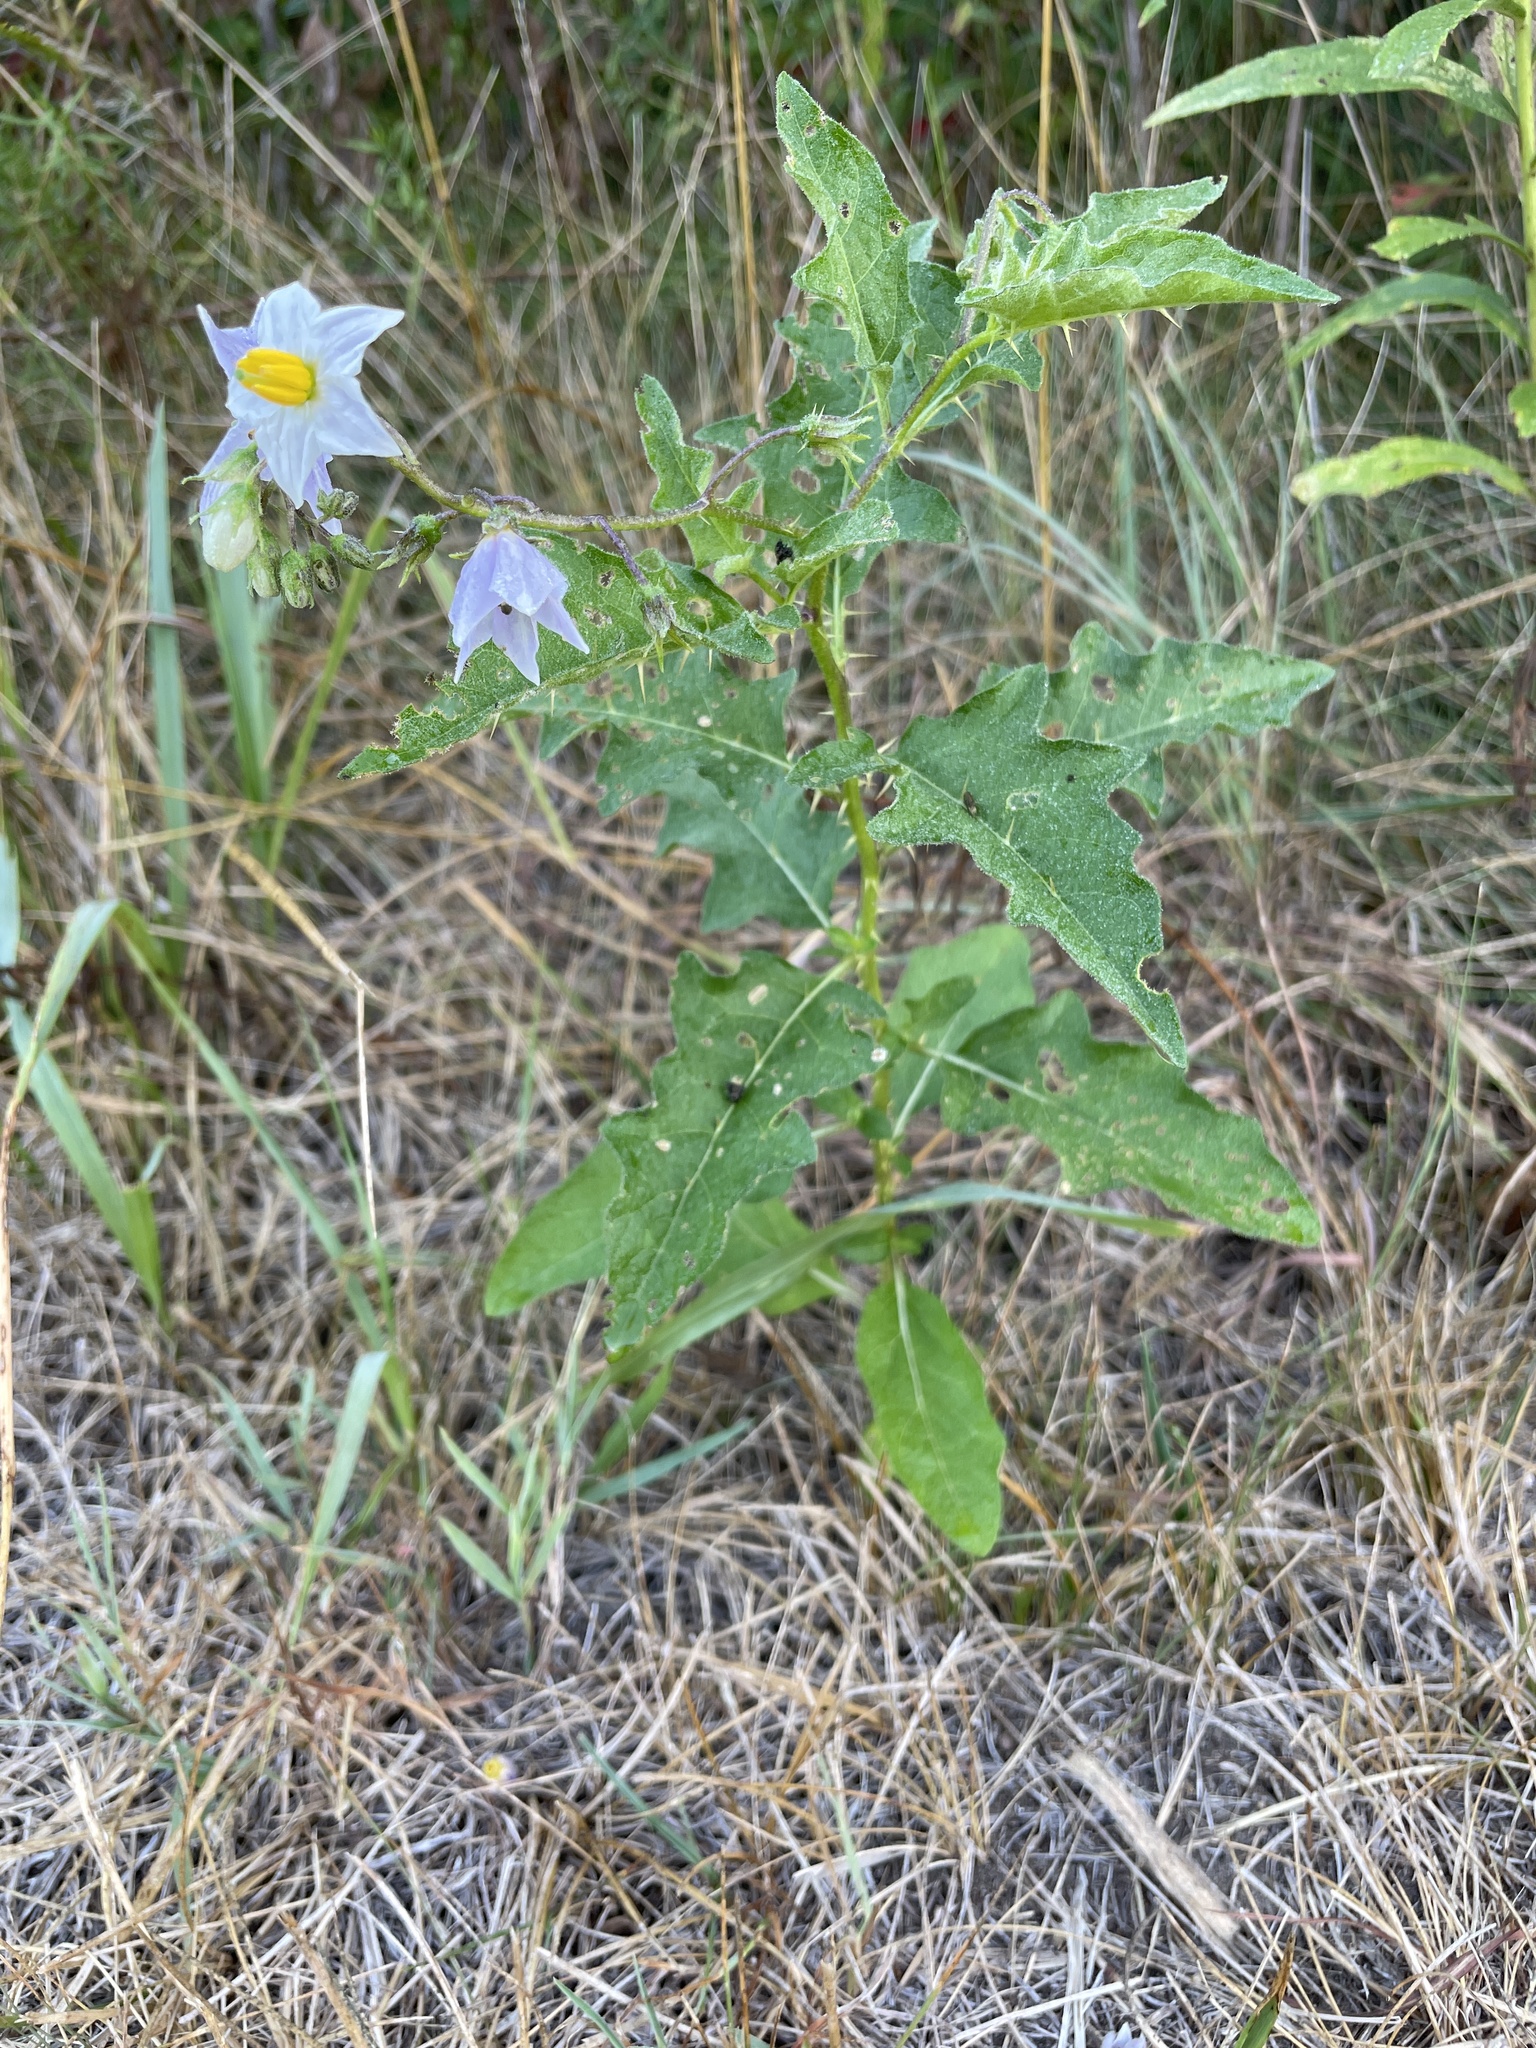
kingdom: Plantae
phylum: Tracheophyta
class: Magnoliopsida
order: Solanales
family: Solanaceae
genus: Solanum
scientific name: Solanum carolinense
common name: Horse-nettle
